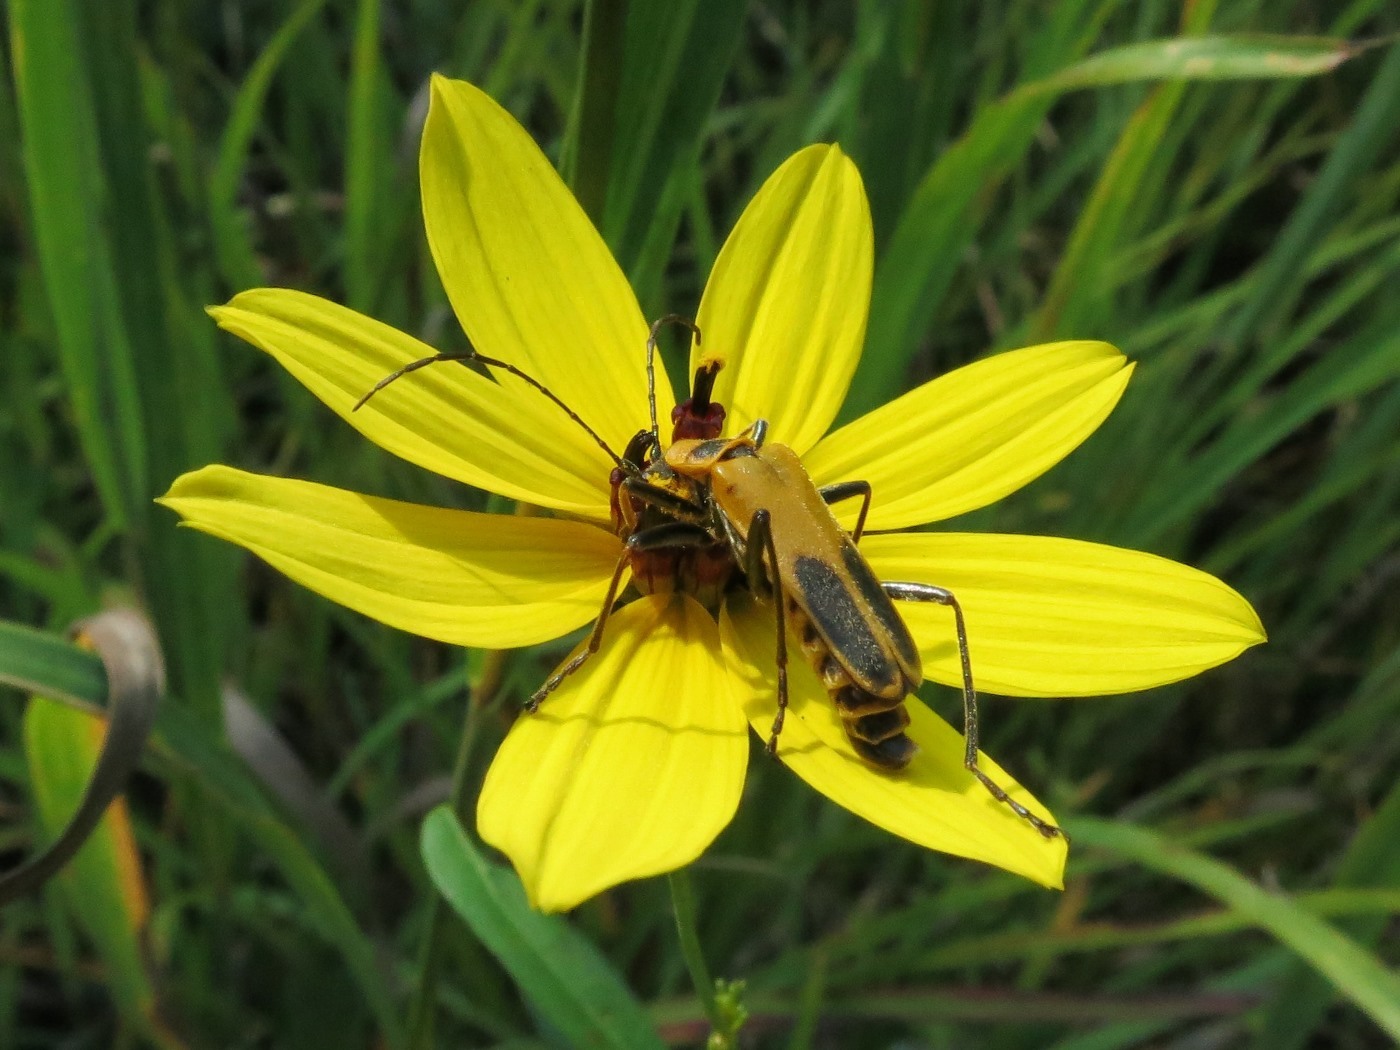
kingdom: Animalia
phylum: Arthropoda
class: Insecta
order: Coleoptera
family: Cantharidae
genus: Chauliognathus
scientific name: Chauliognathus pensylvanicus
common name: Goldenrod soldier beetle
